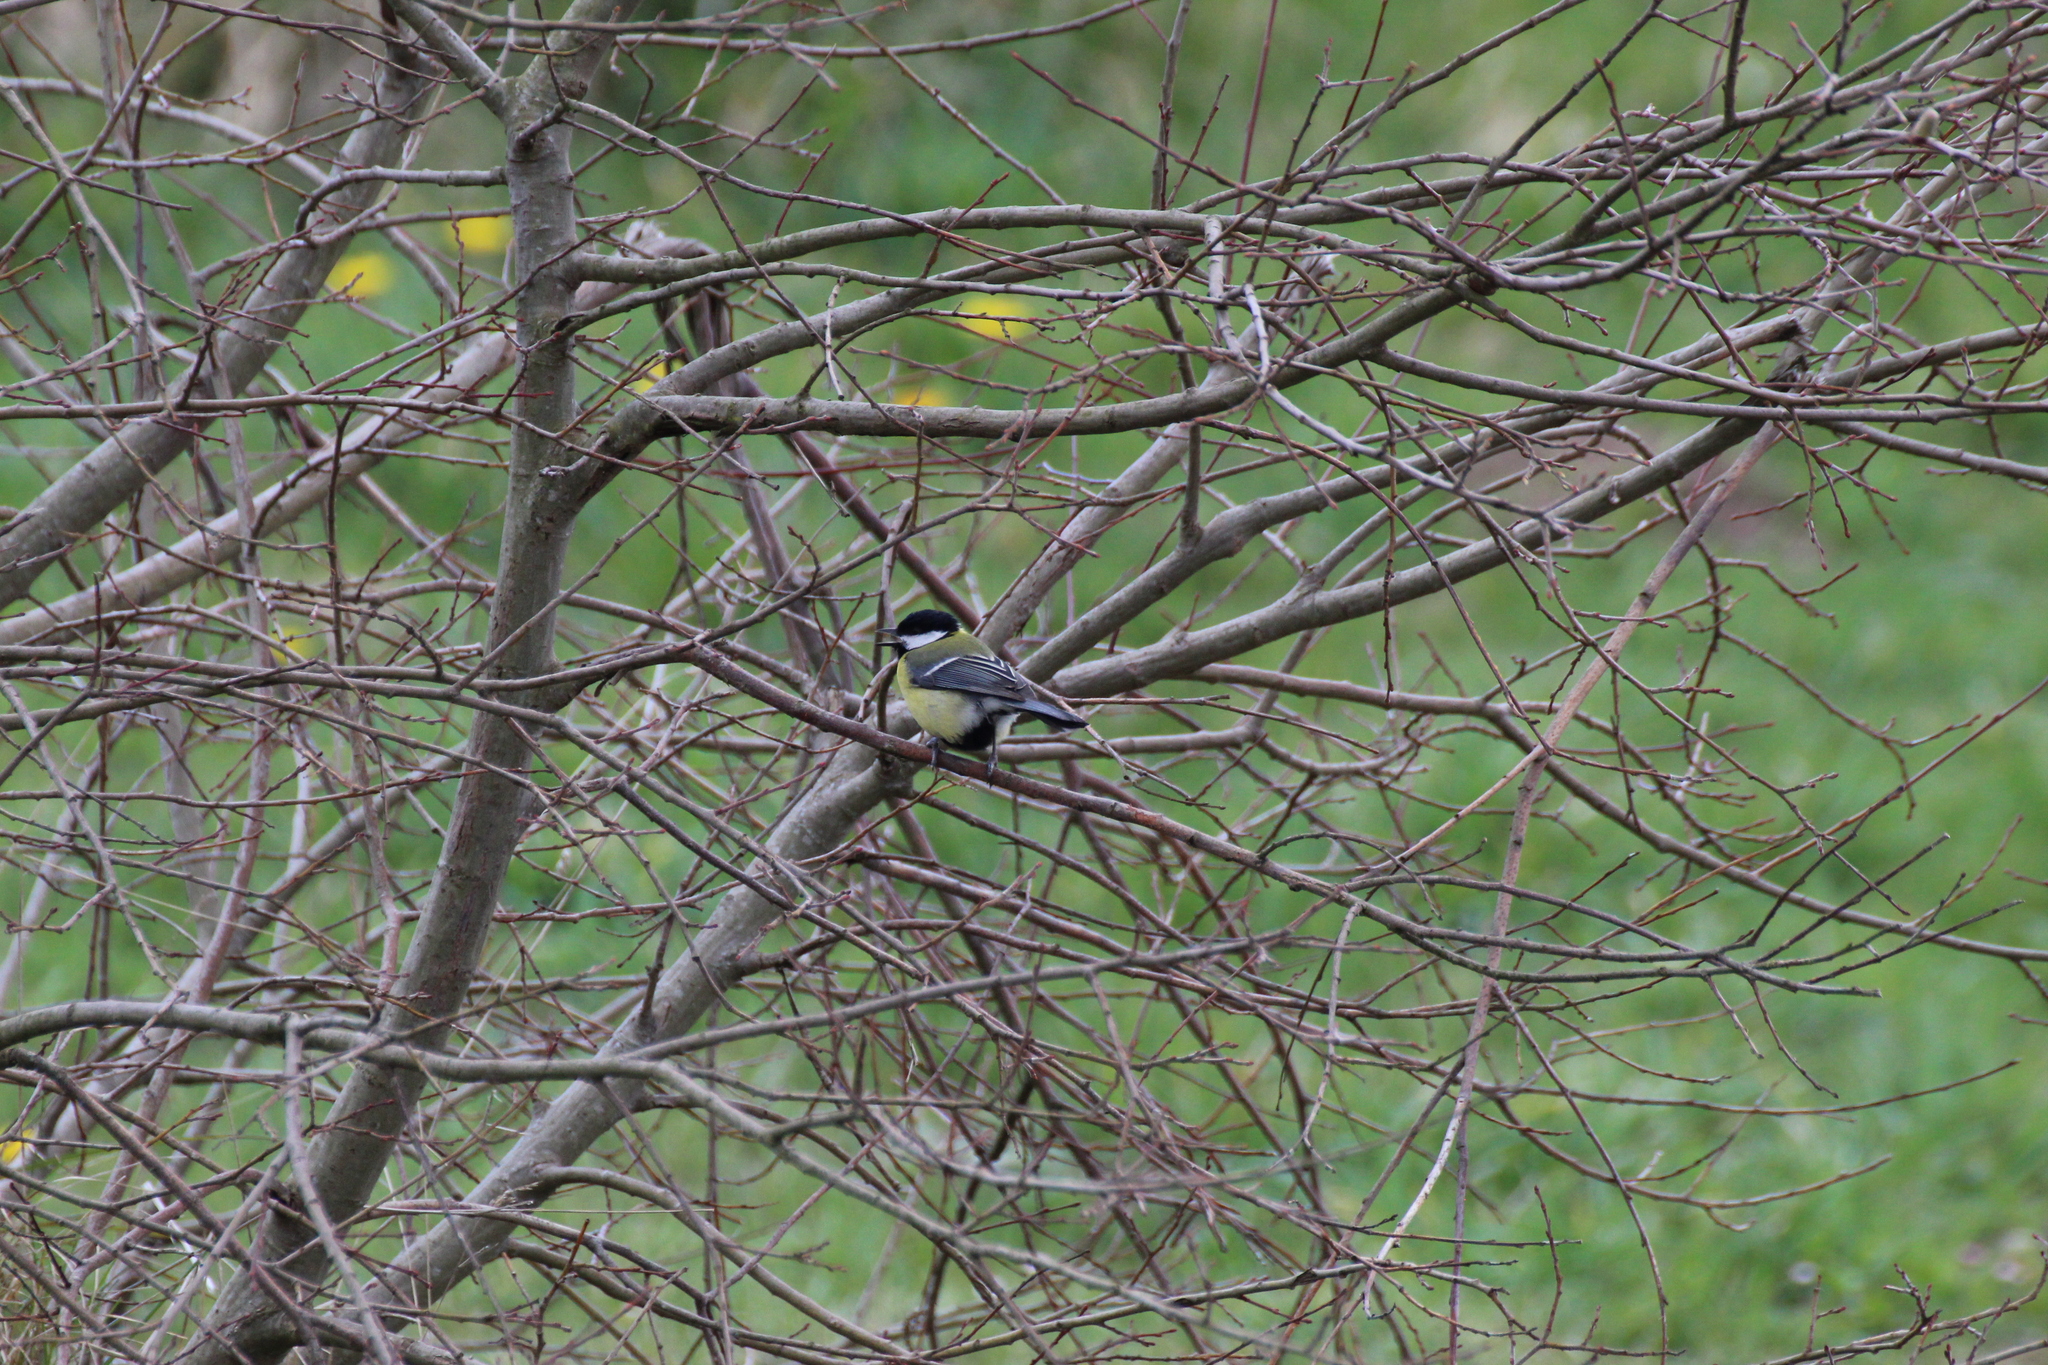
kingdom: Animalia
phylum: Chordata
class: Aves
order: Passeriformes
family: Paridae
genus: Parus
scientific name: Parus major
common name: Great tit
